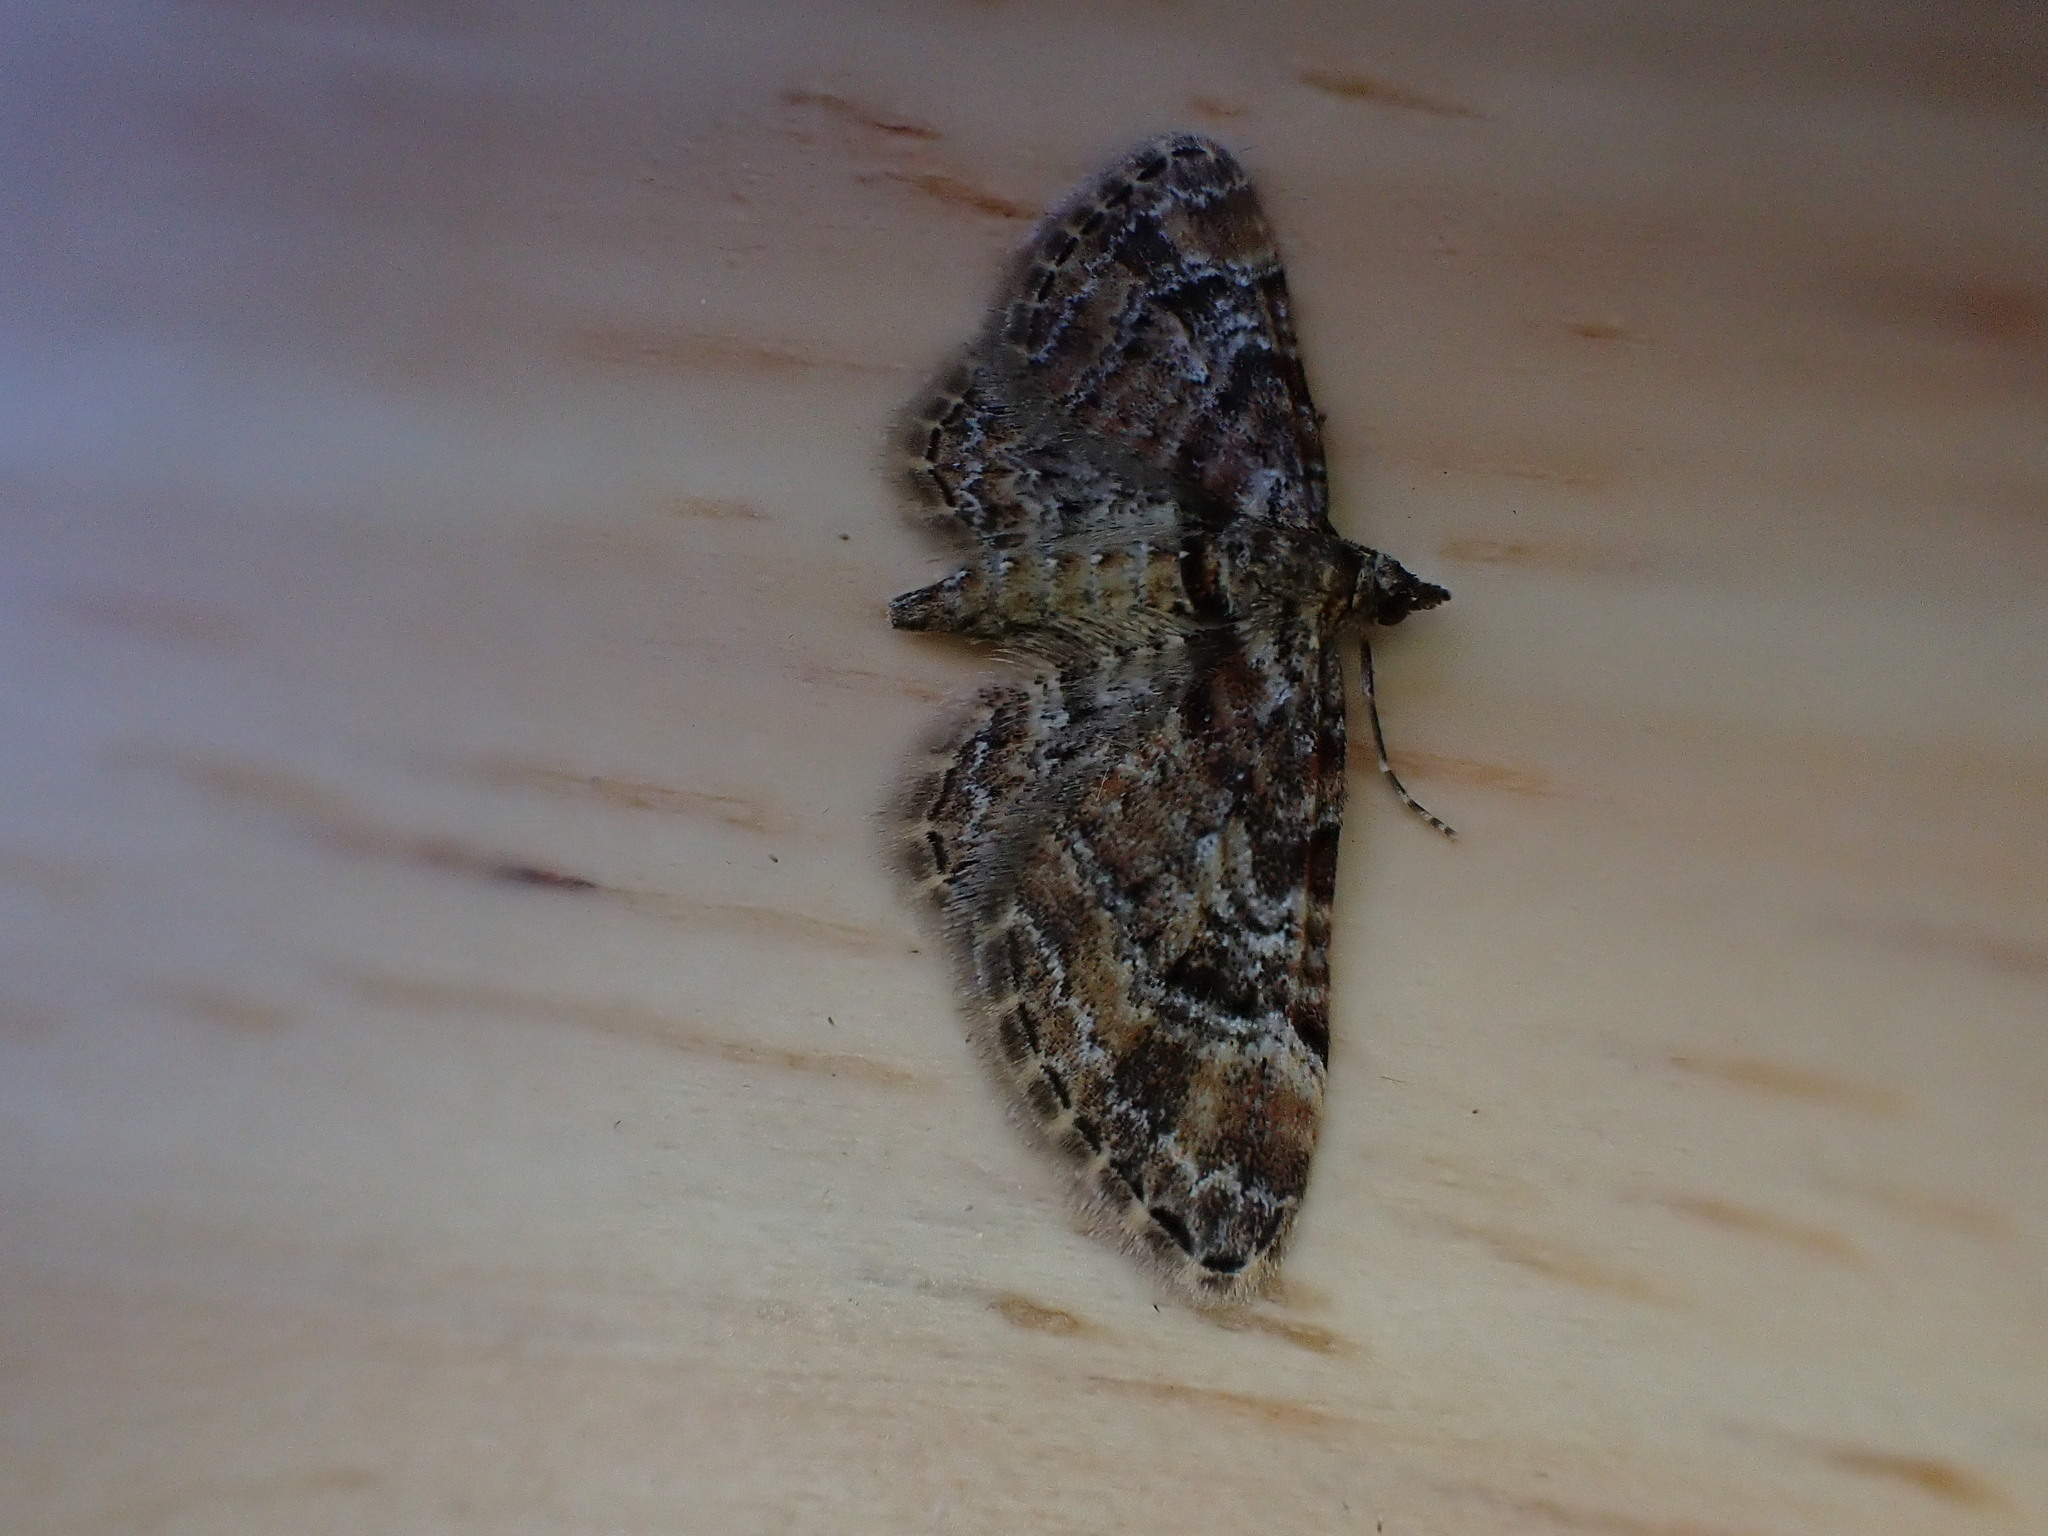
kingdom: Animalia
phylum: Arthropoda
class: Insecta
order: Lepidoptera
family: Geometridae
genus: Gymnoscelis
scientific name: Gymnoscelis rufifasciata
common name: Double-striped pug
